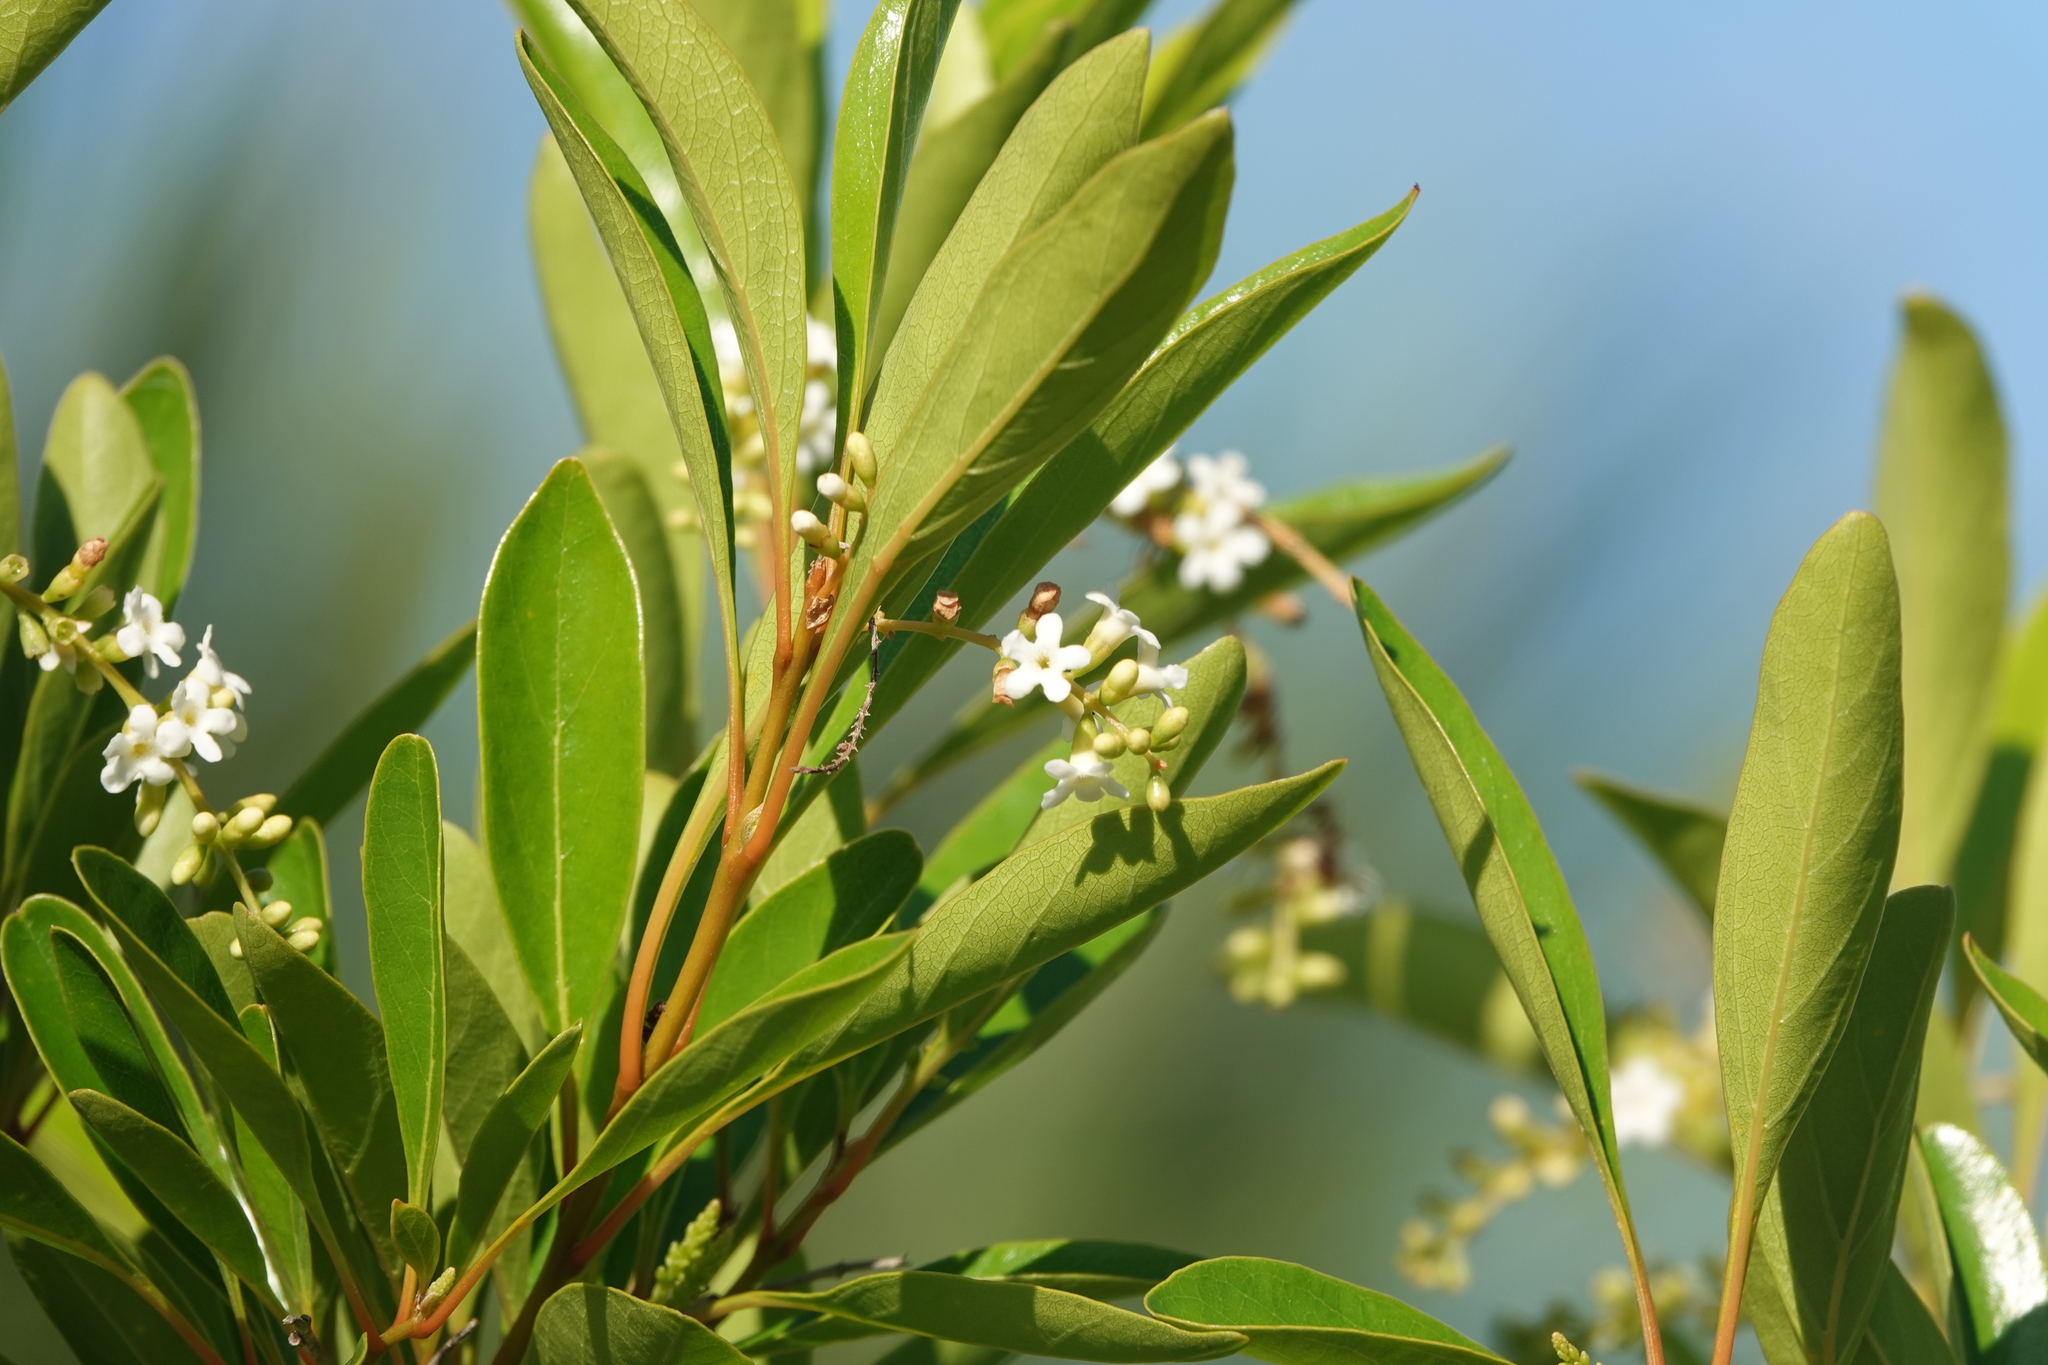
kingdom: Plantae
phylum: Tracheophyta
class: Magnoliopsida
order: Lamiales
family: Verbenaceae
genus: Citharexylum
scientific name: Citharexylum spinosum
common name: Fiddlewood
